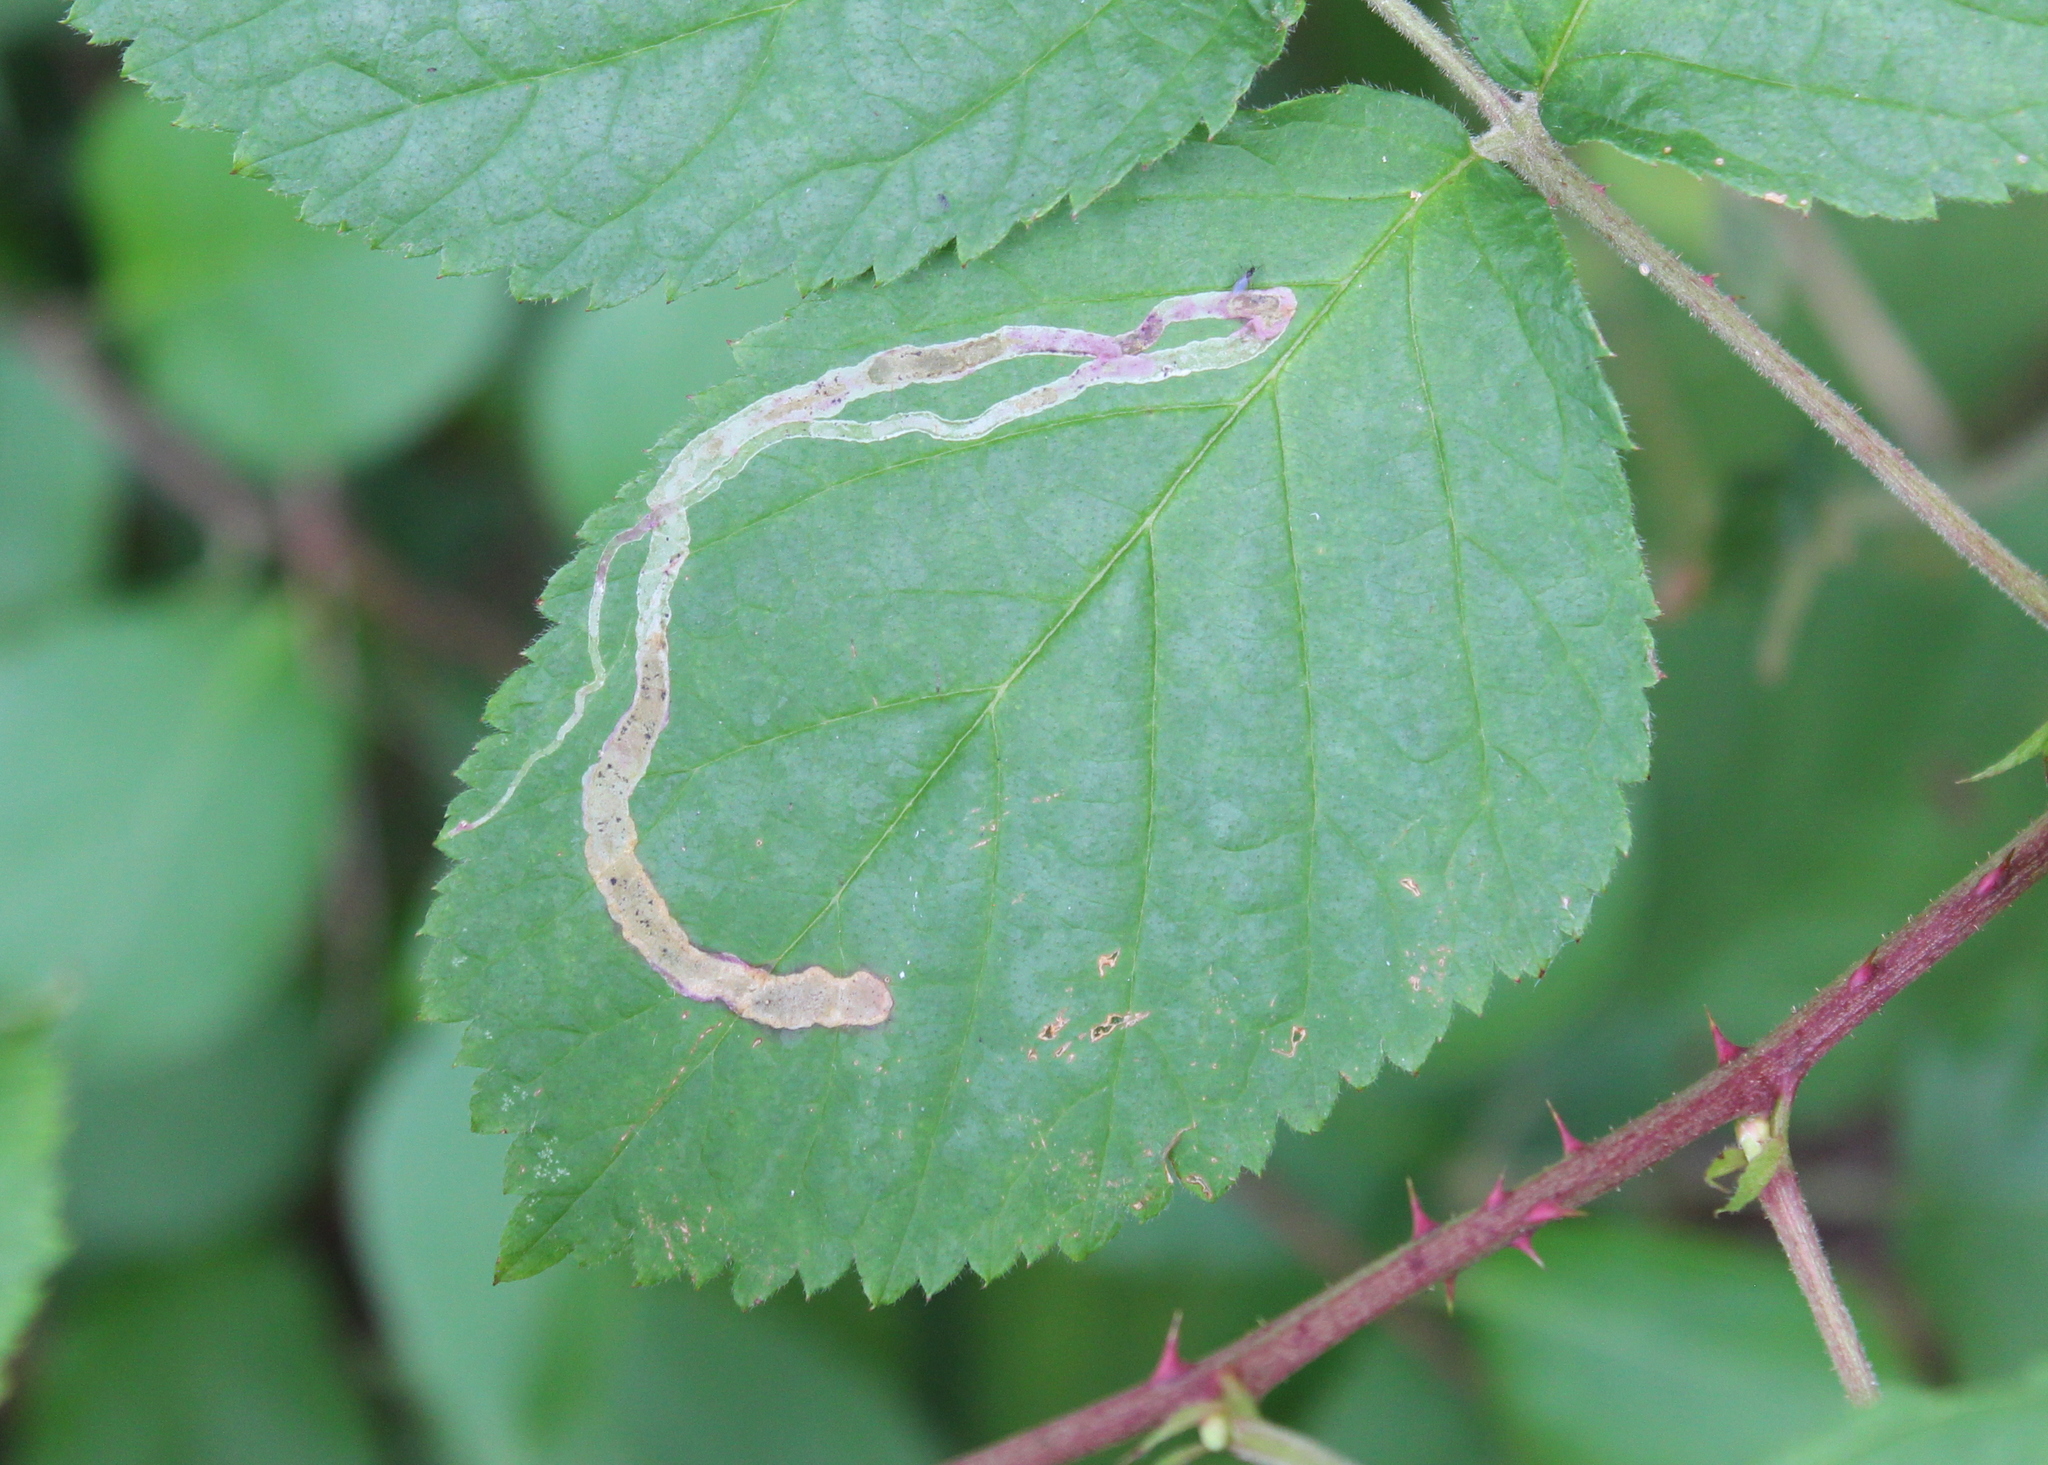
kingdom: Animalia
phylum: Arthropoda
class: Insecta
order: Diptera
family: Agromyzidae
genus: Agromyza
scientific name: Agromyza vockerothi
